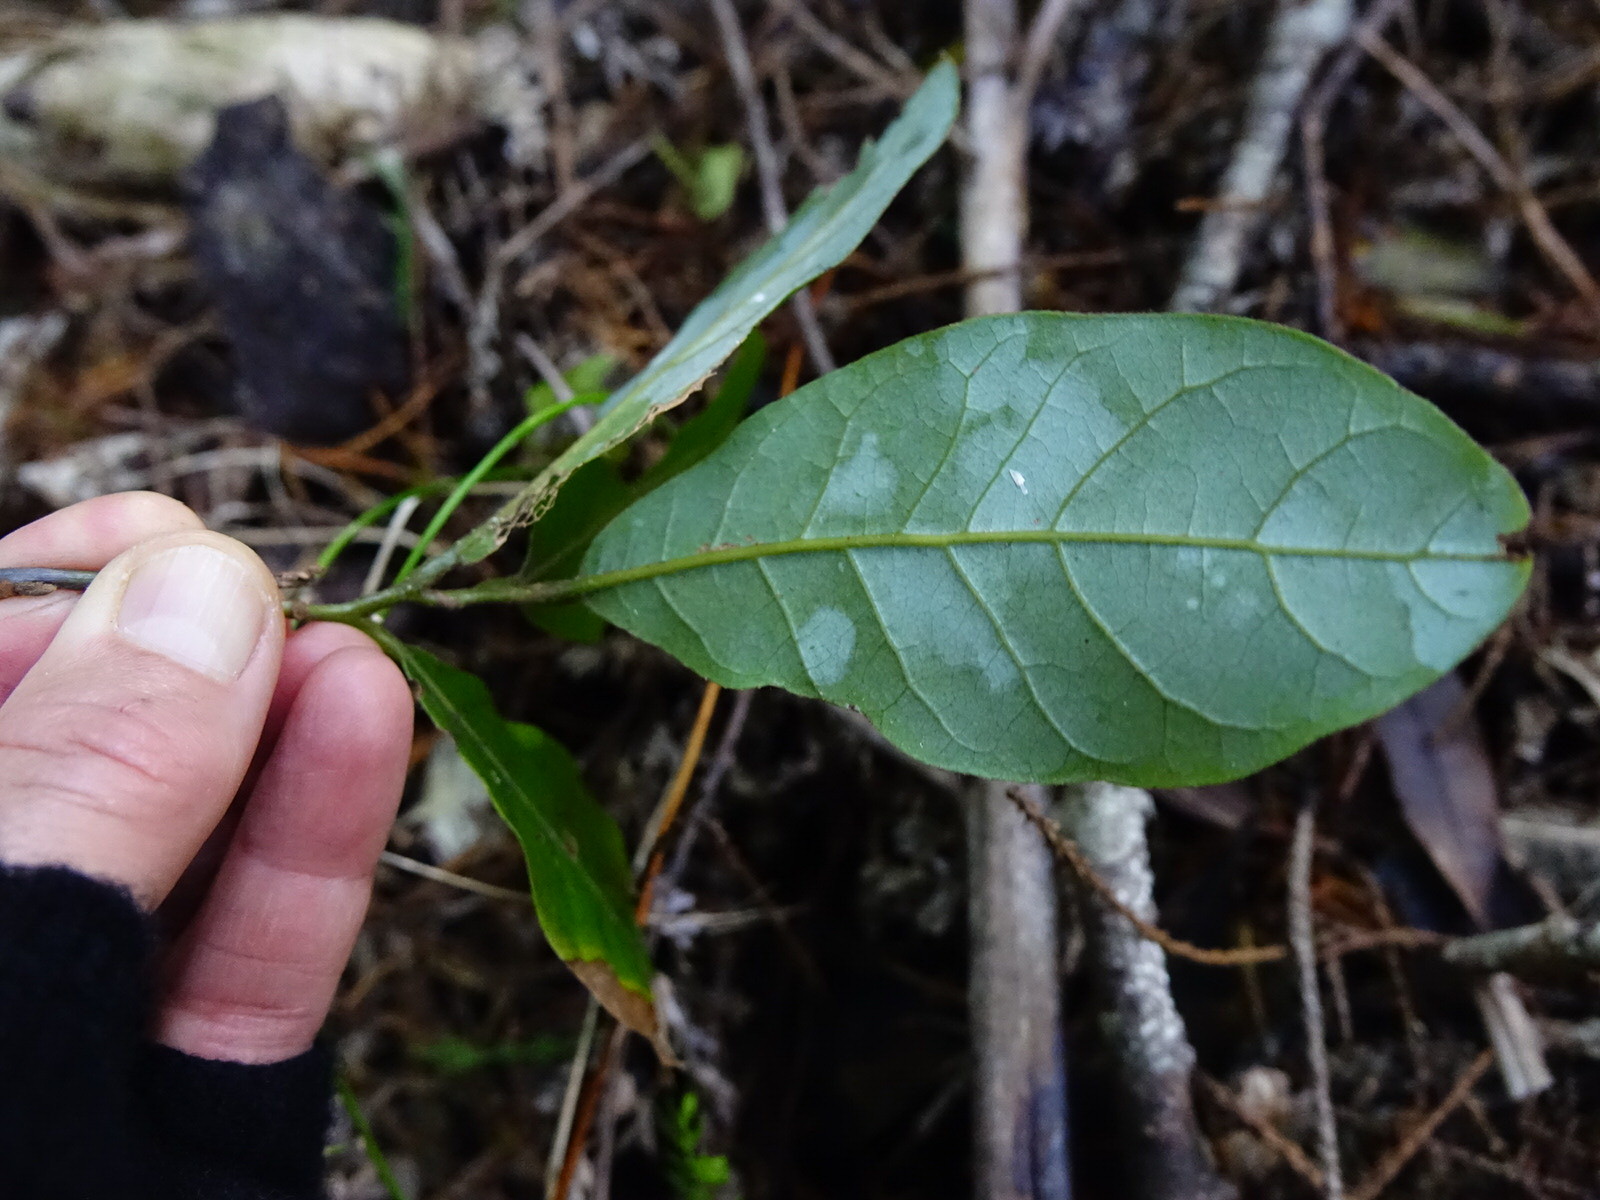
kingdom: Plantae
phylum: Tracheophyta
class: Magnoliopsida
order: Laurales
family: Lauraceae
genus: Beilschmiedia
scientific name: Beilschmiedia tarairi
